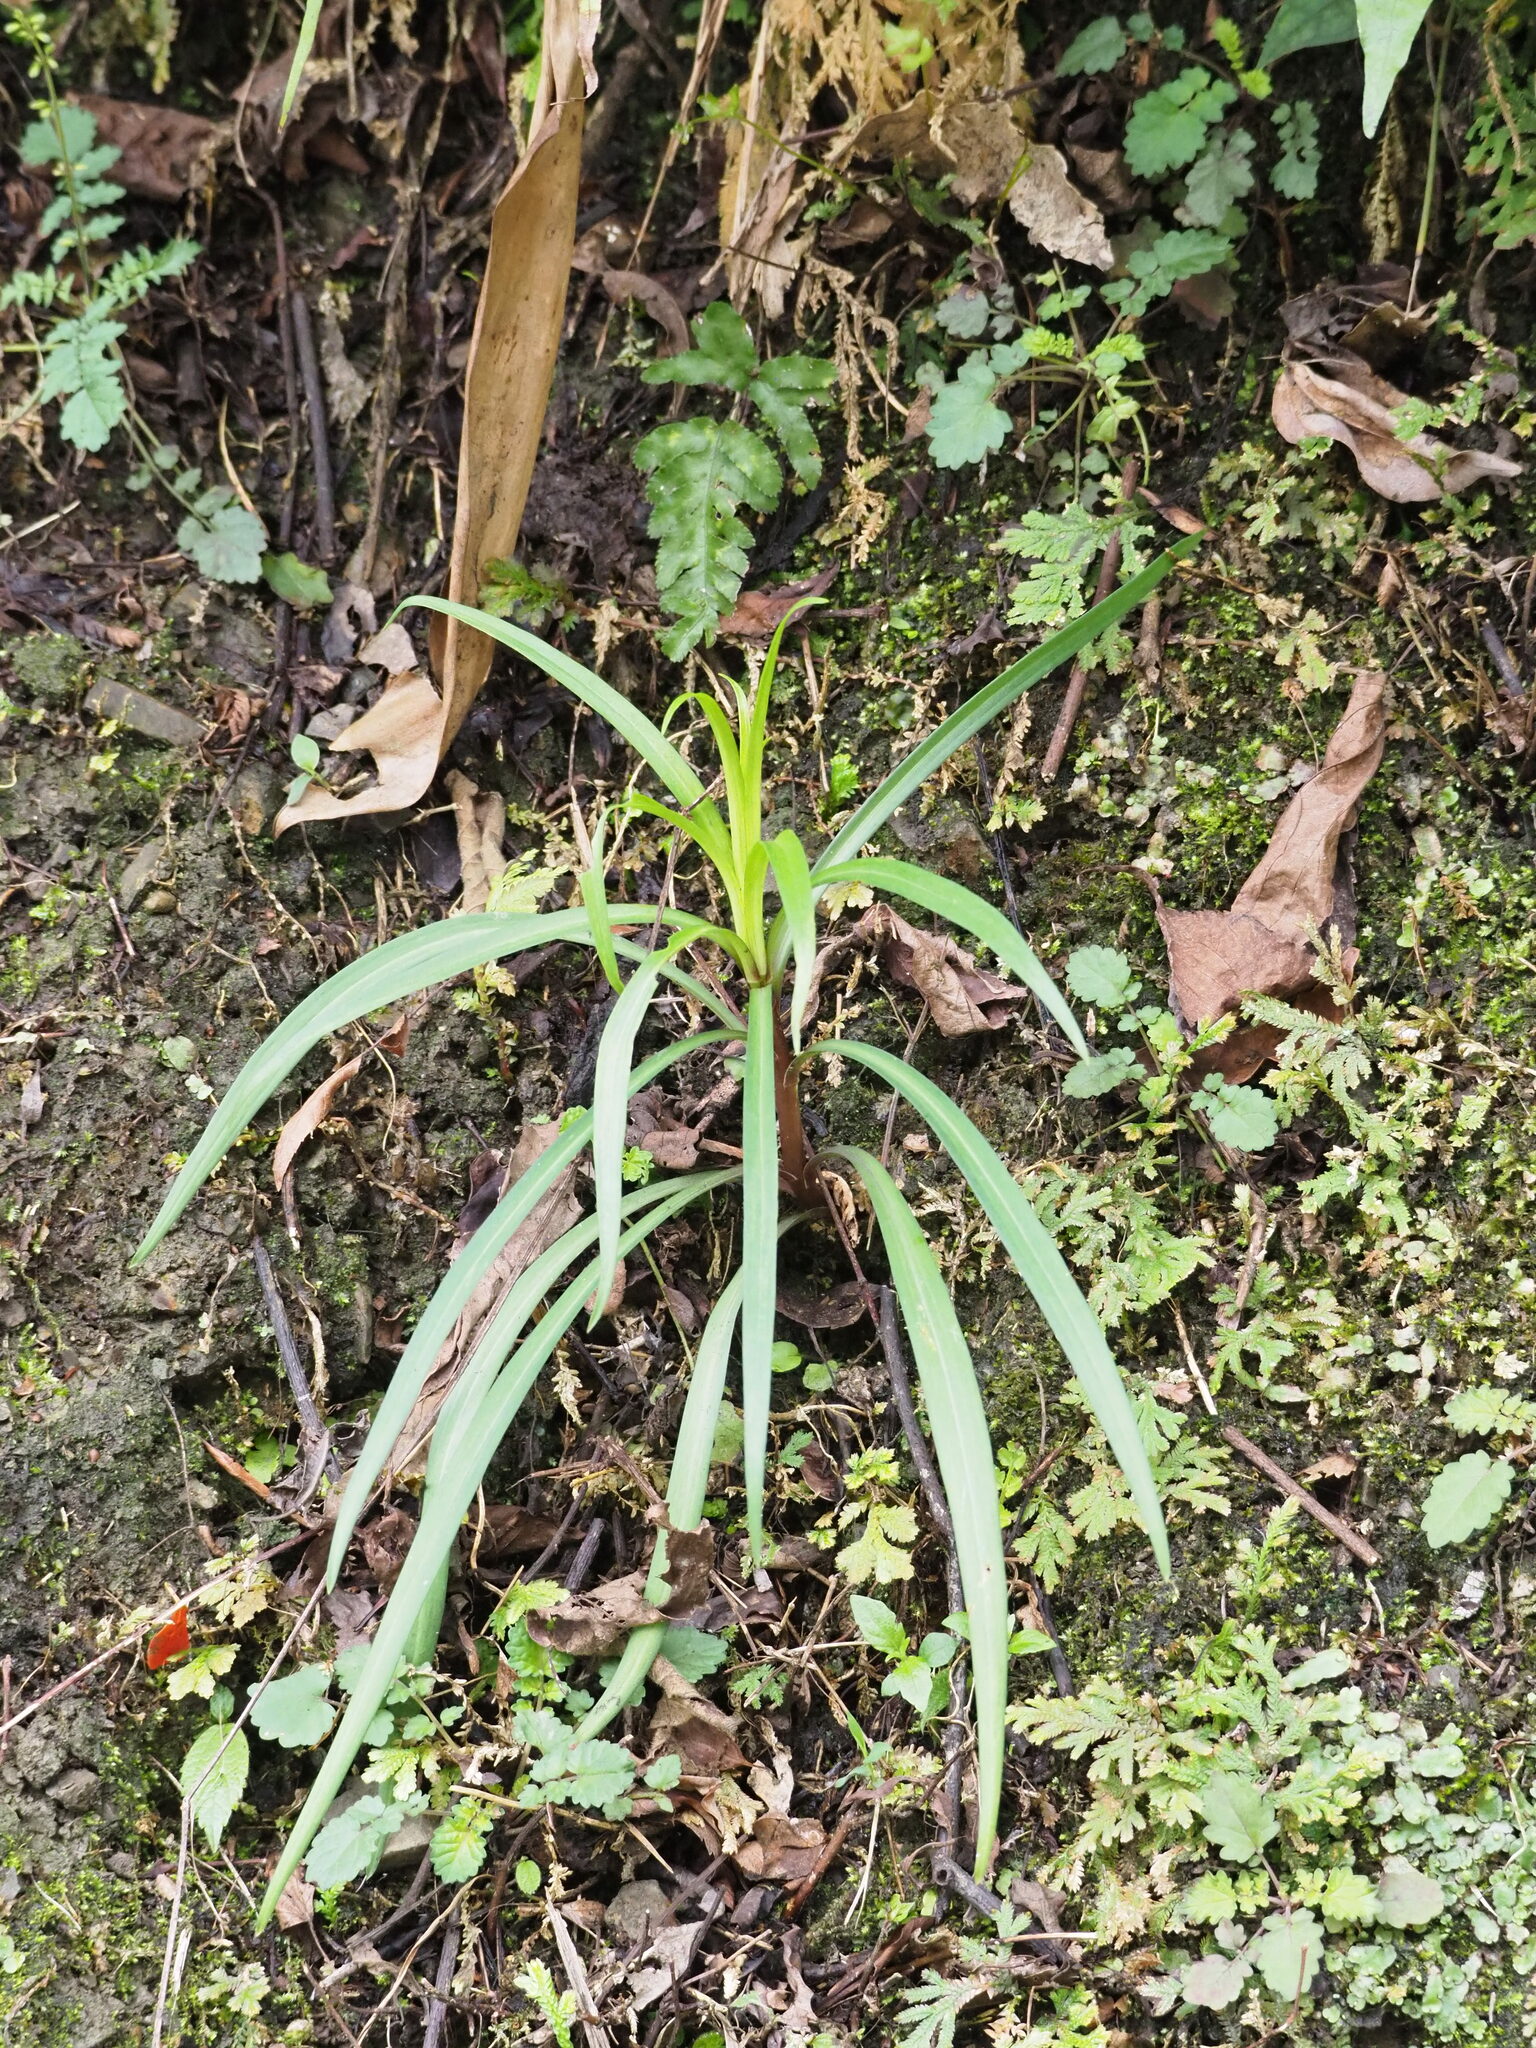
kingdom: Plantae
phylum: Tracheophyta
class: Liliopsida
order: Liliales
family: Liliaceae
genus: Lilium
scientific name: Lilium formosanum
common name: Formosa lily
